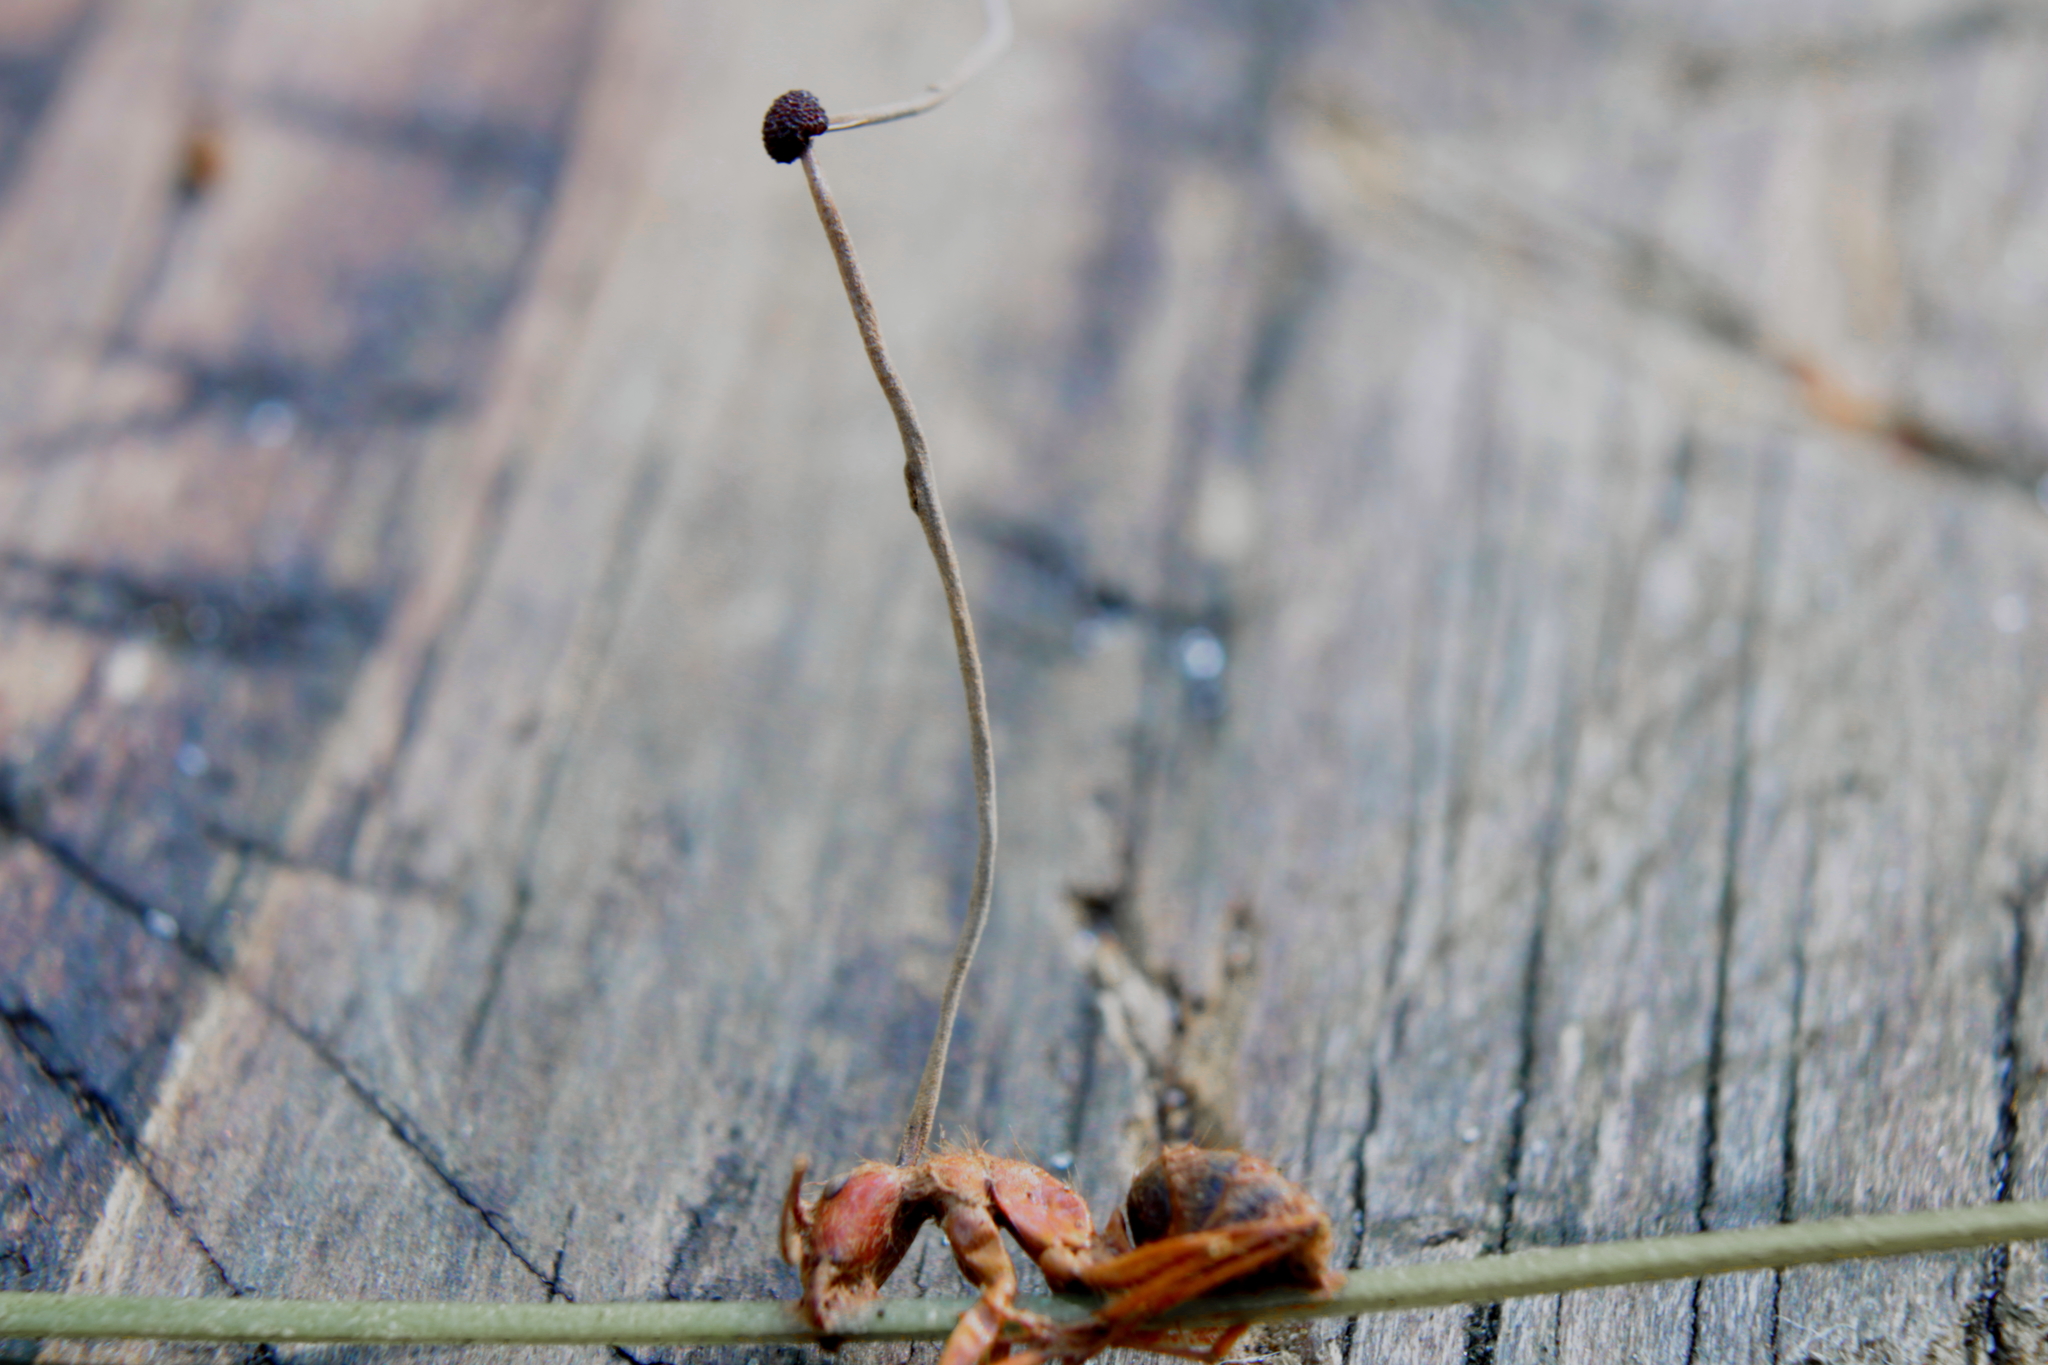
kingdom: Fungi
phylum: Ascomycota
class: Sordariomycetes
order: Hypocreales
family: Ophiocordycipitaceae
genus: Ophiocordyceps
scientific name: Ophiocordyceps camponoti-floridani
